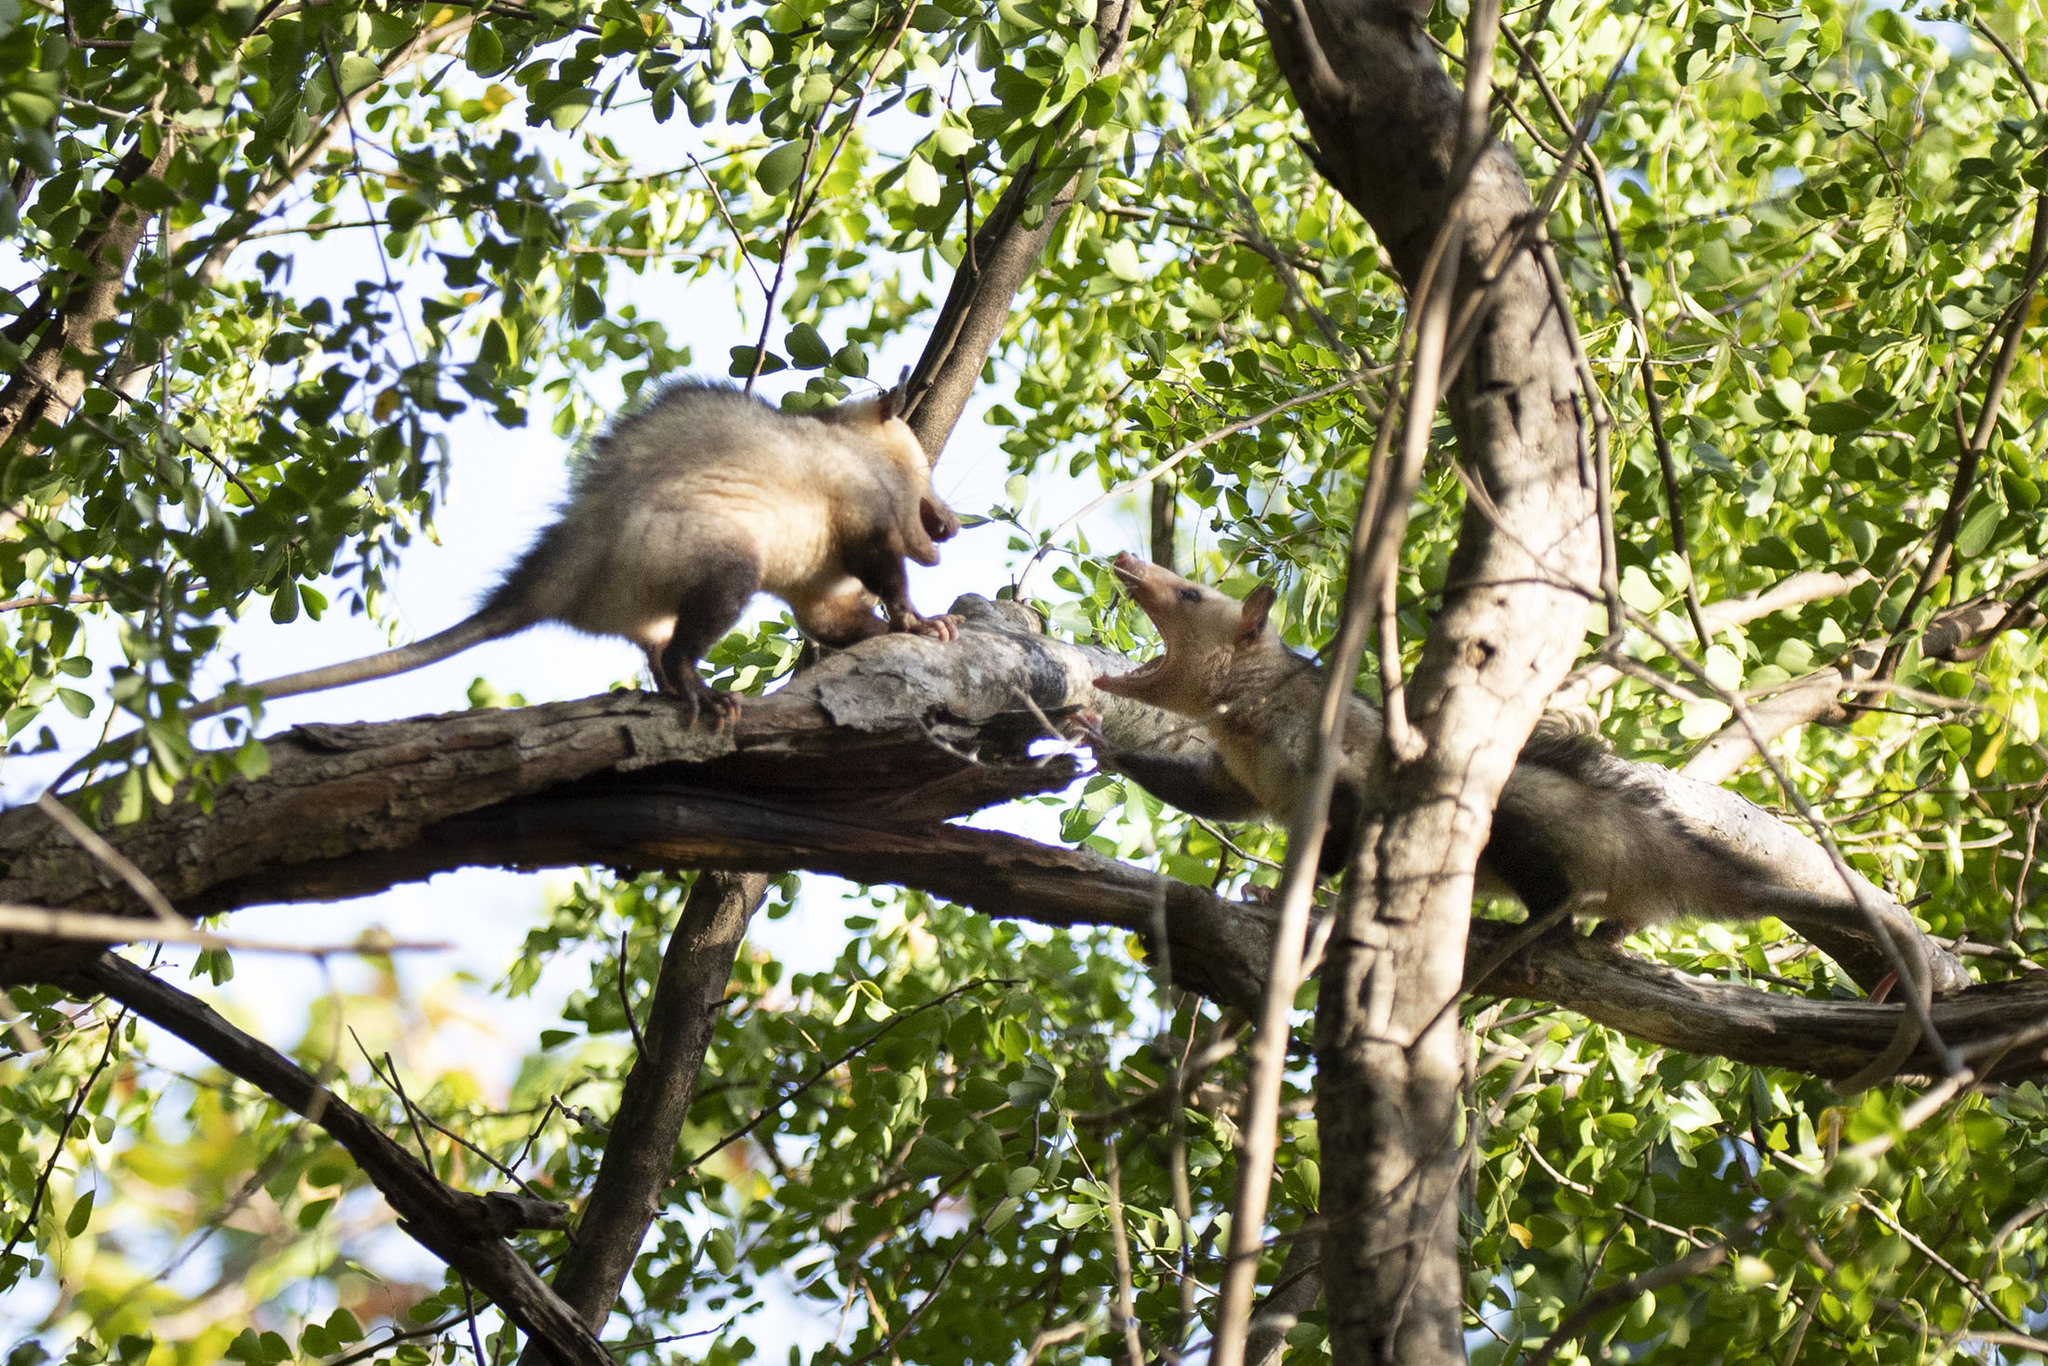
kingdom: Animalia
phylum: Chordata
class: Mammalia
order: Didelphimorphia
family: Didelphidae
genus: Didelphis
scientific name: Didelphis marsupialis
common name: Common opossum
